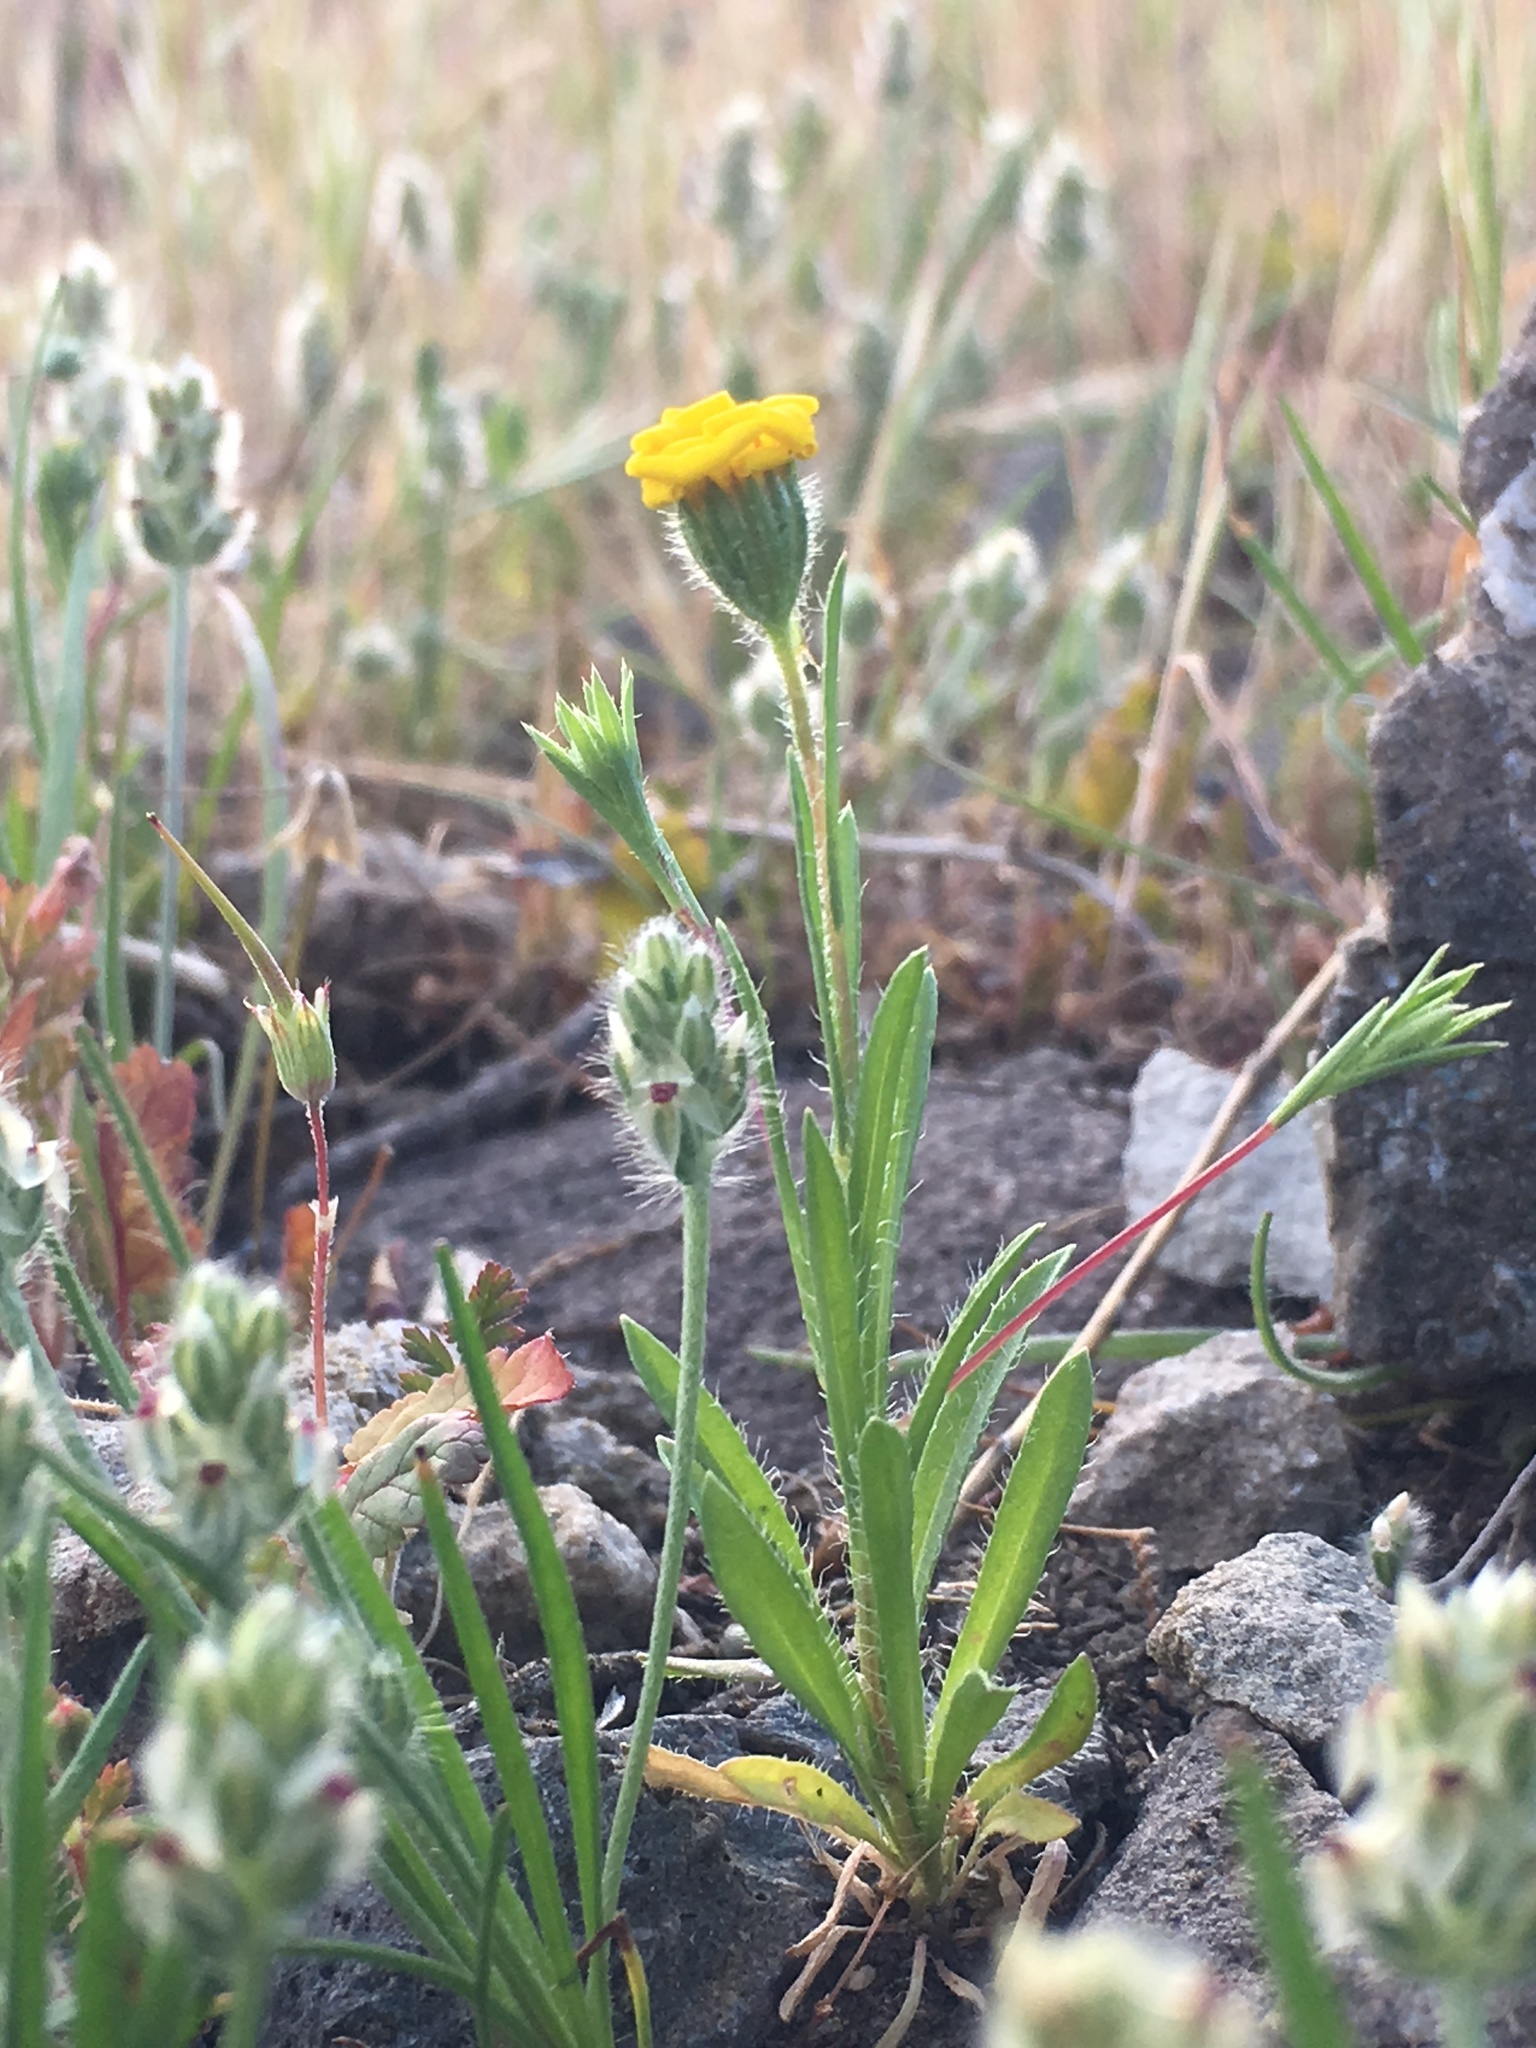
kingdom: Plantae
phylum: Tracheophyta
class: Magnoliopsida
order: Asterales
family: Asteraceae
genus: Pentachaeta
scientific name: Pentachaeta lyonii
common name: Lyon's pentachaeta
